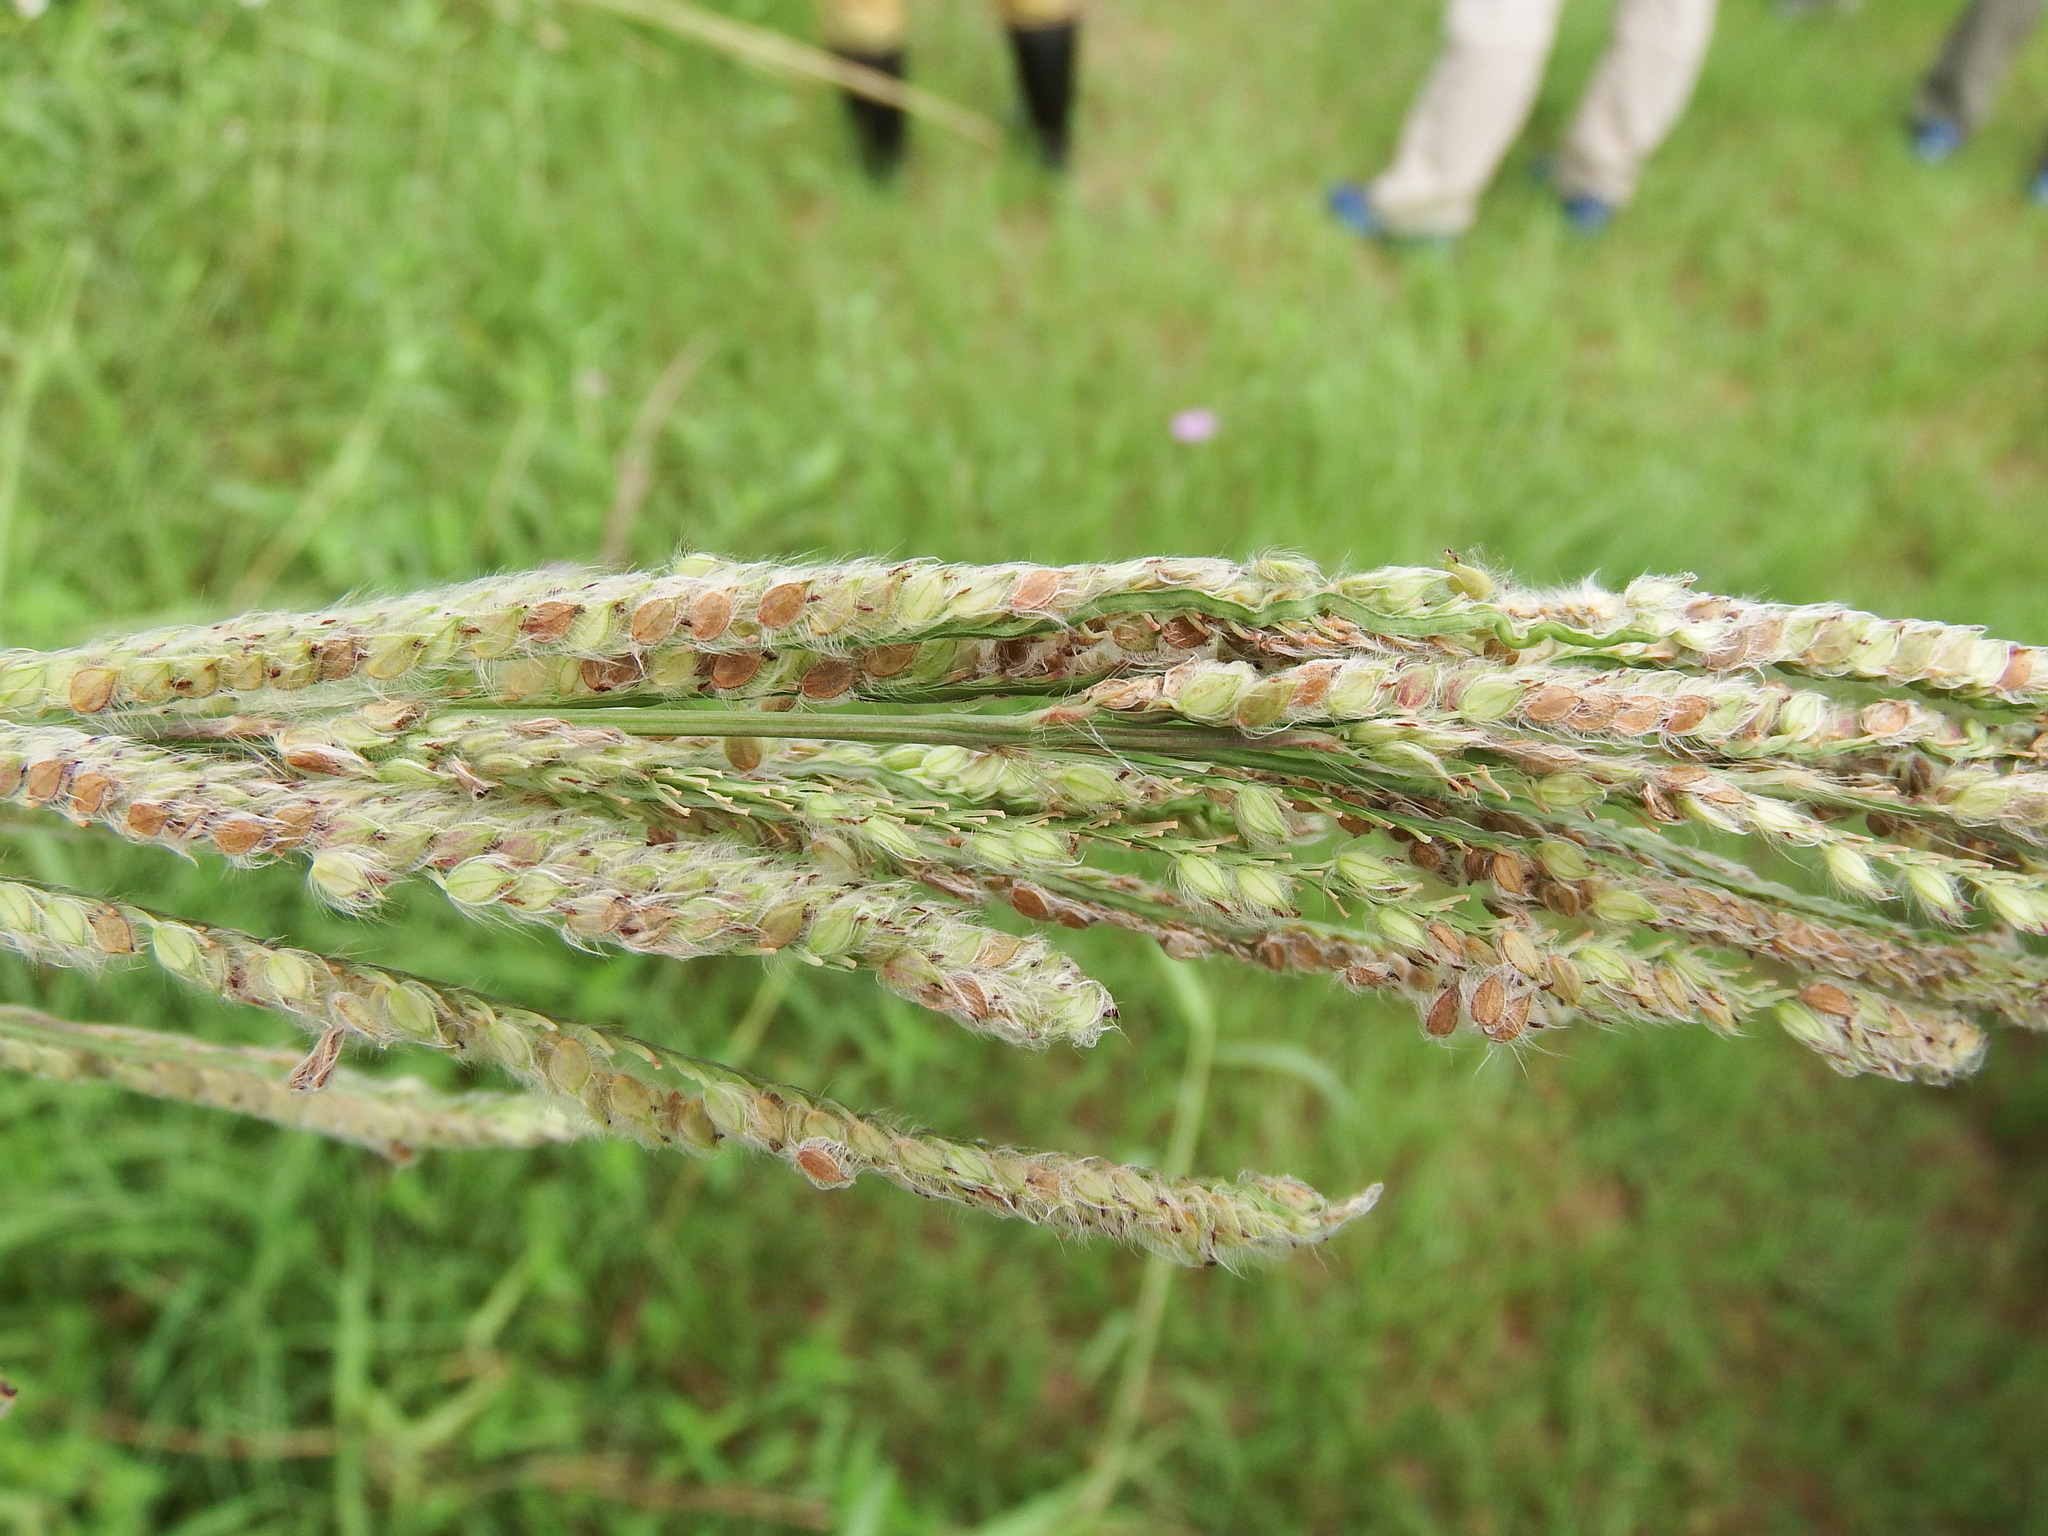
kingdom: Plantae
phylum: Tracheophyta
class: Liliopsida
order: Poales
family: Poaceae
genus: Paspalum
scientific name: Paspalum urvillei
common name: Vasey's grass
